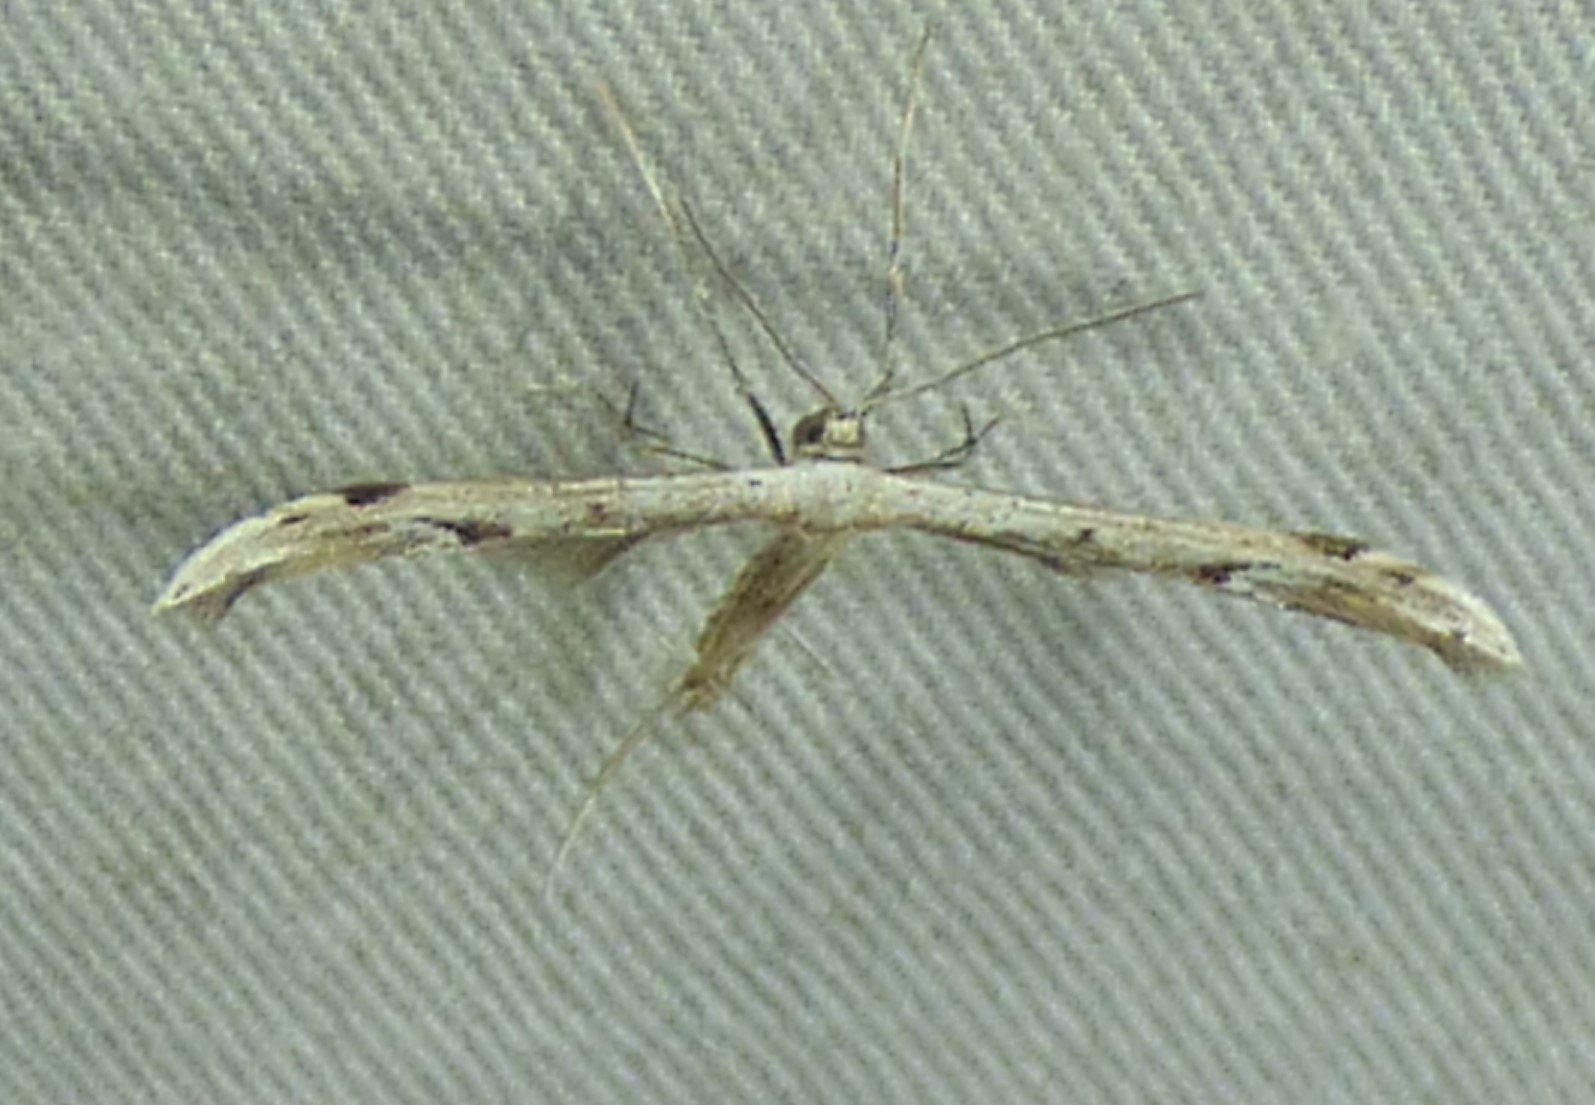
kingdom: Animalia
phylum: Arthropoda
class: Insecta
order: Lepidoptera
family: Pterophoridae
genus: Pselnophorus
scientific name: Pselnophorus belfragei
